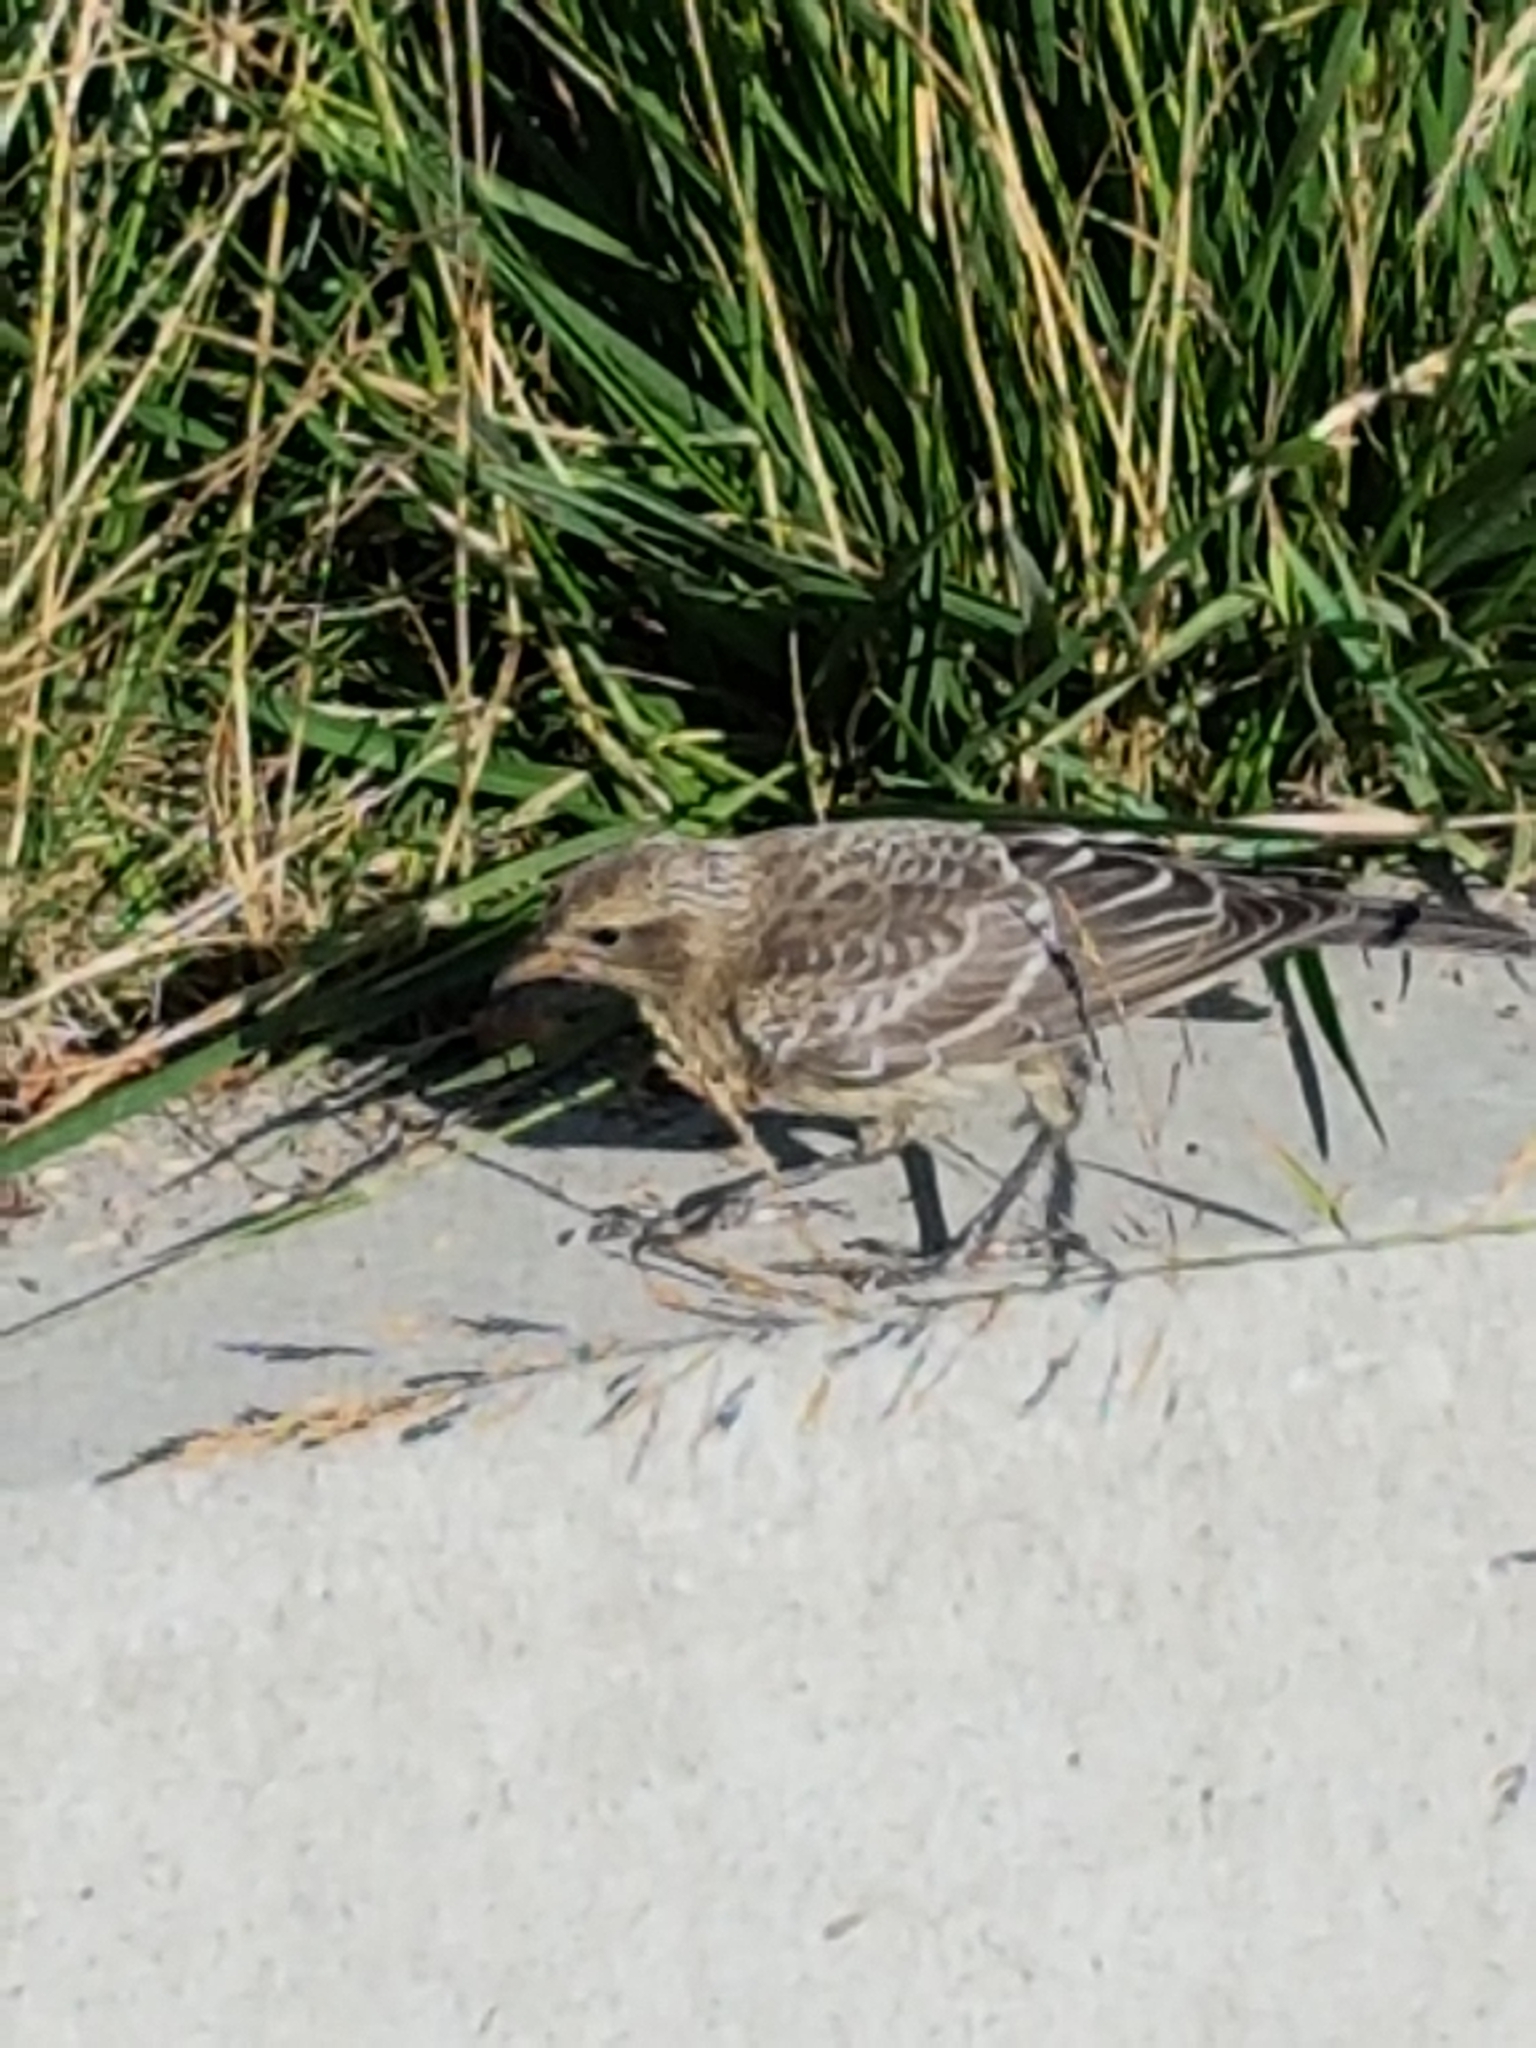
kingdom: Animalia
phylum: Chordata
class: Aves
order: Passeriformes
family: Icteridae
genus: Molothrus
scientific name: Molothrus ater
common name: Brown-headed cowbird
